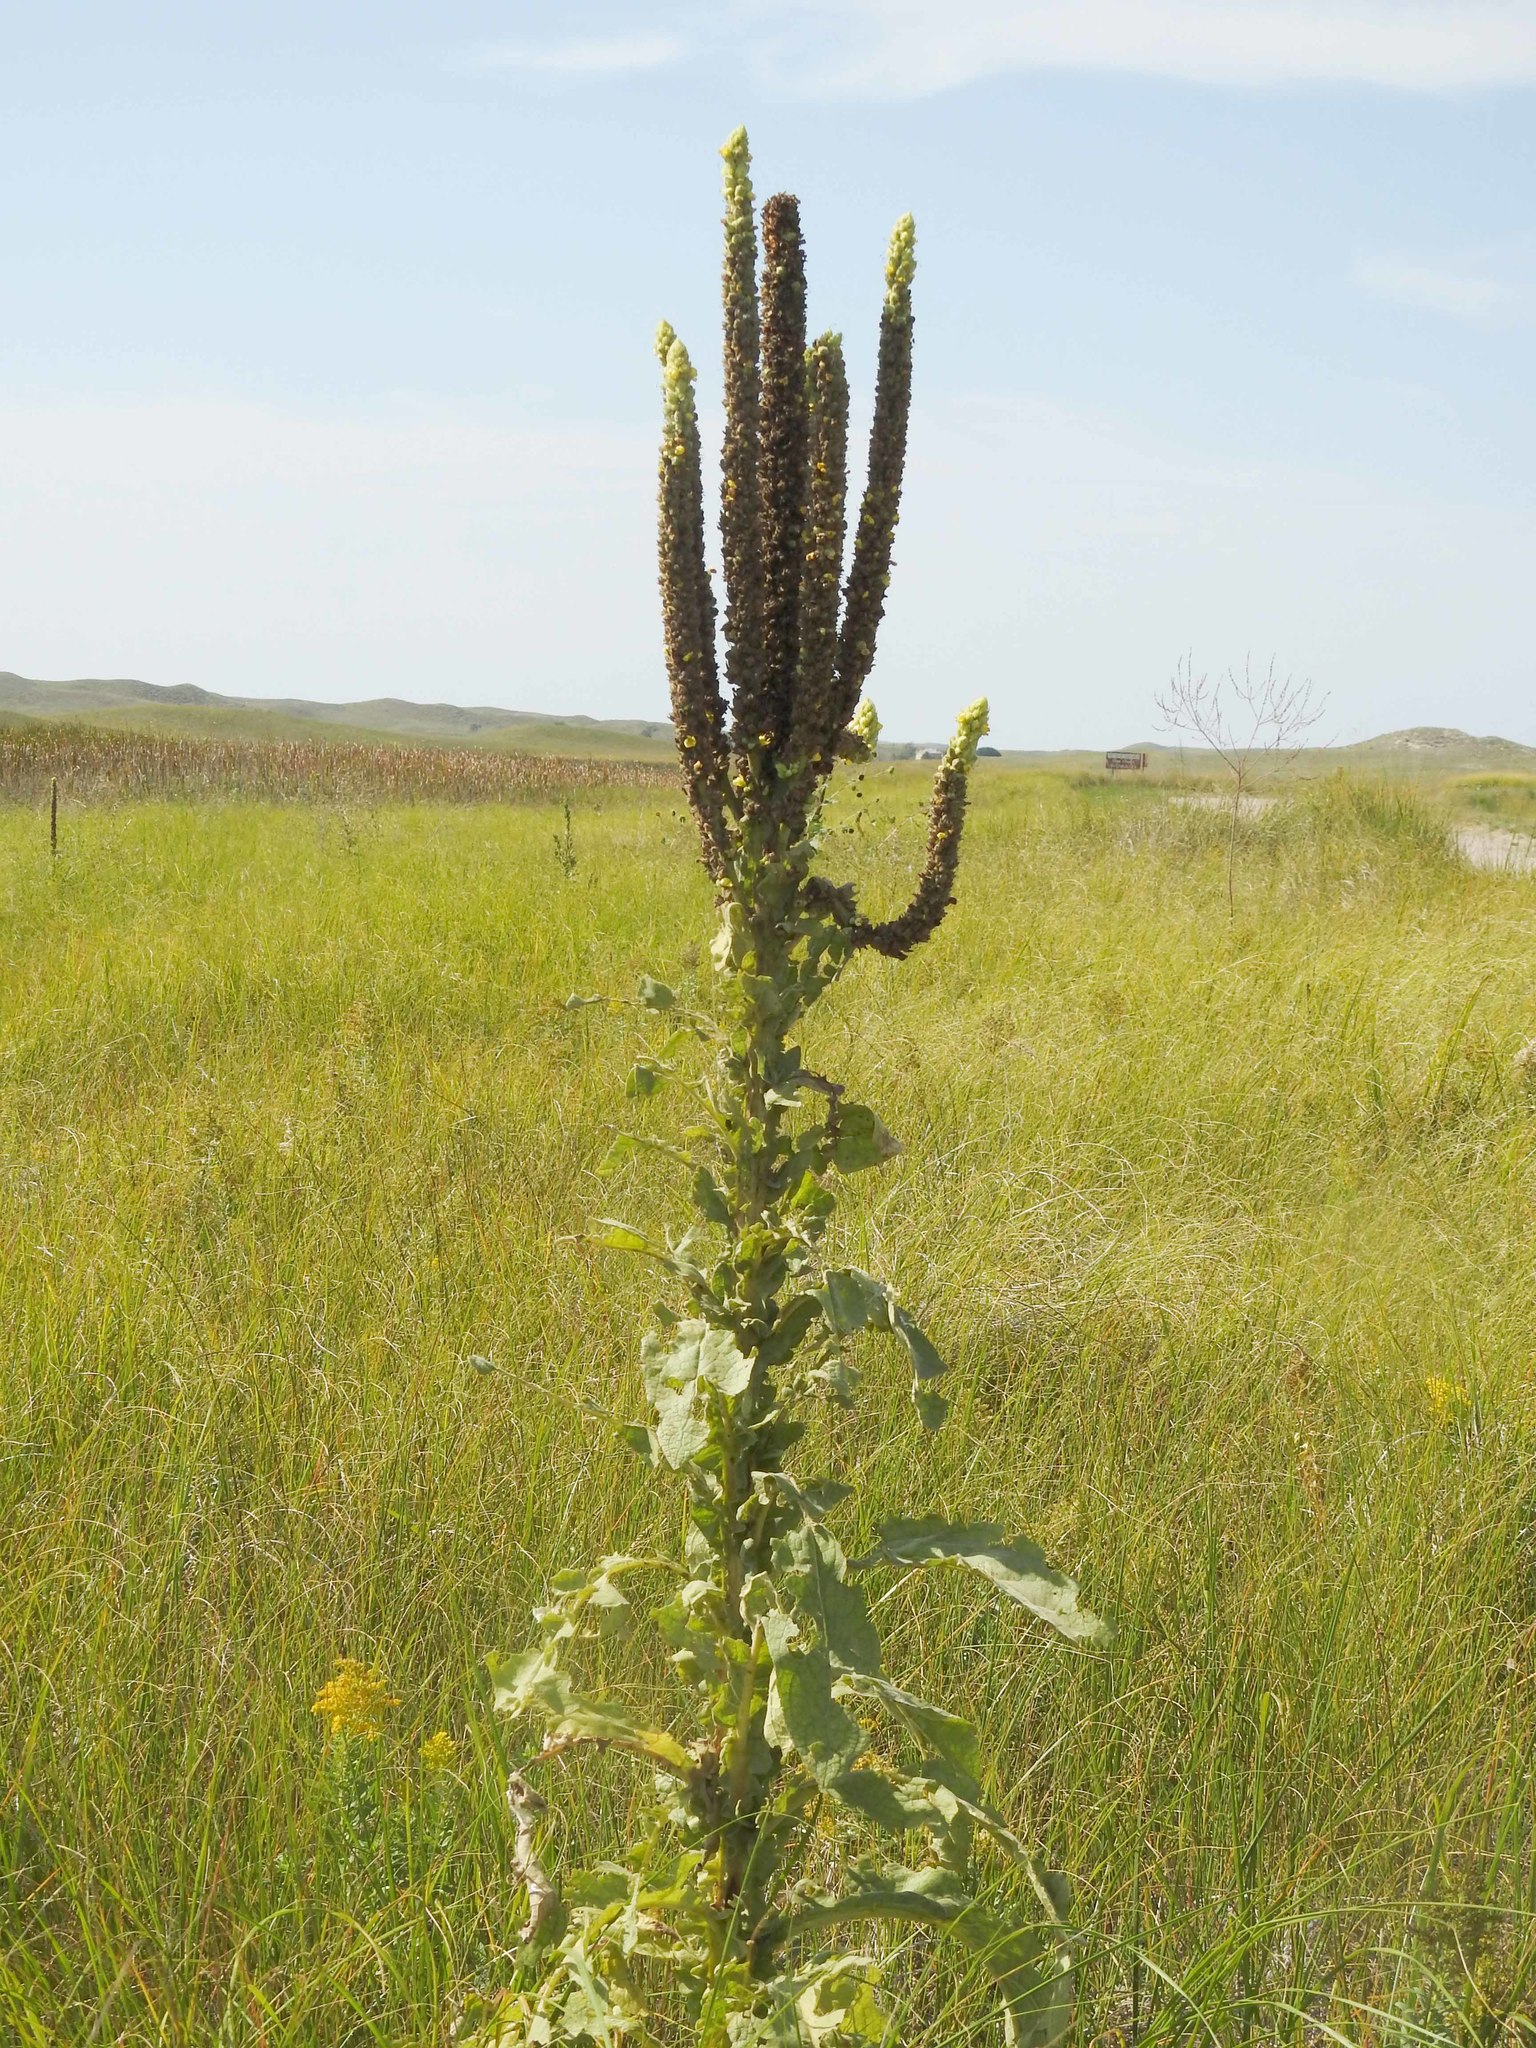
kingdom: Plantae
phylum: Tracheophyta
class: Magnoliopsida
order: Lamiales
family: Scrophulariaceae
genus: Verbascum
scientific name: Verbascum thapsus
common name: Common mullein
